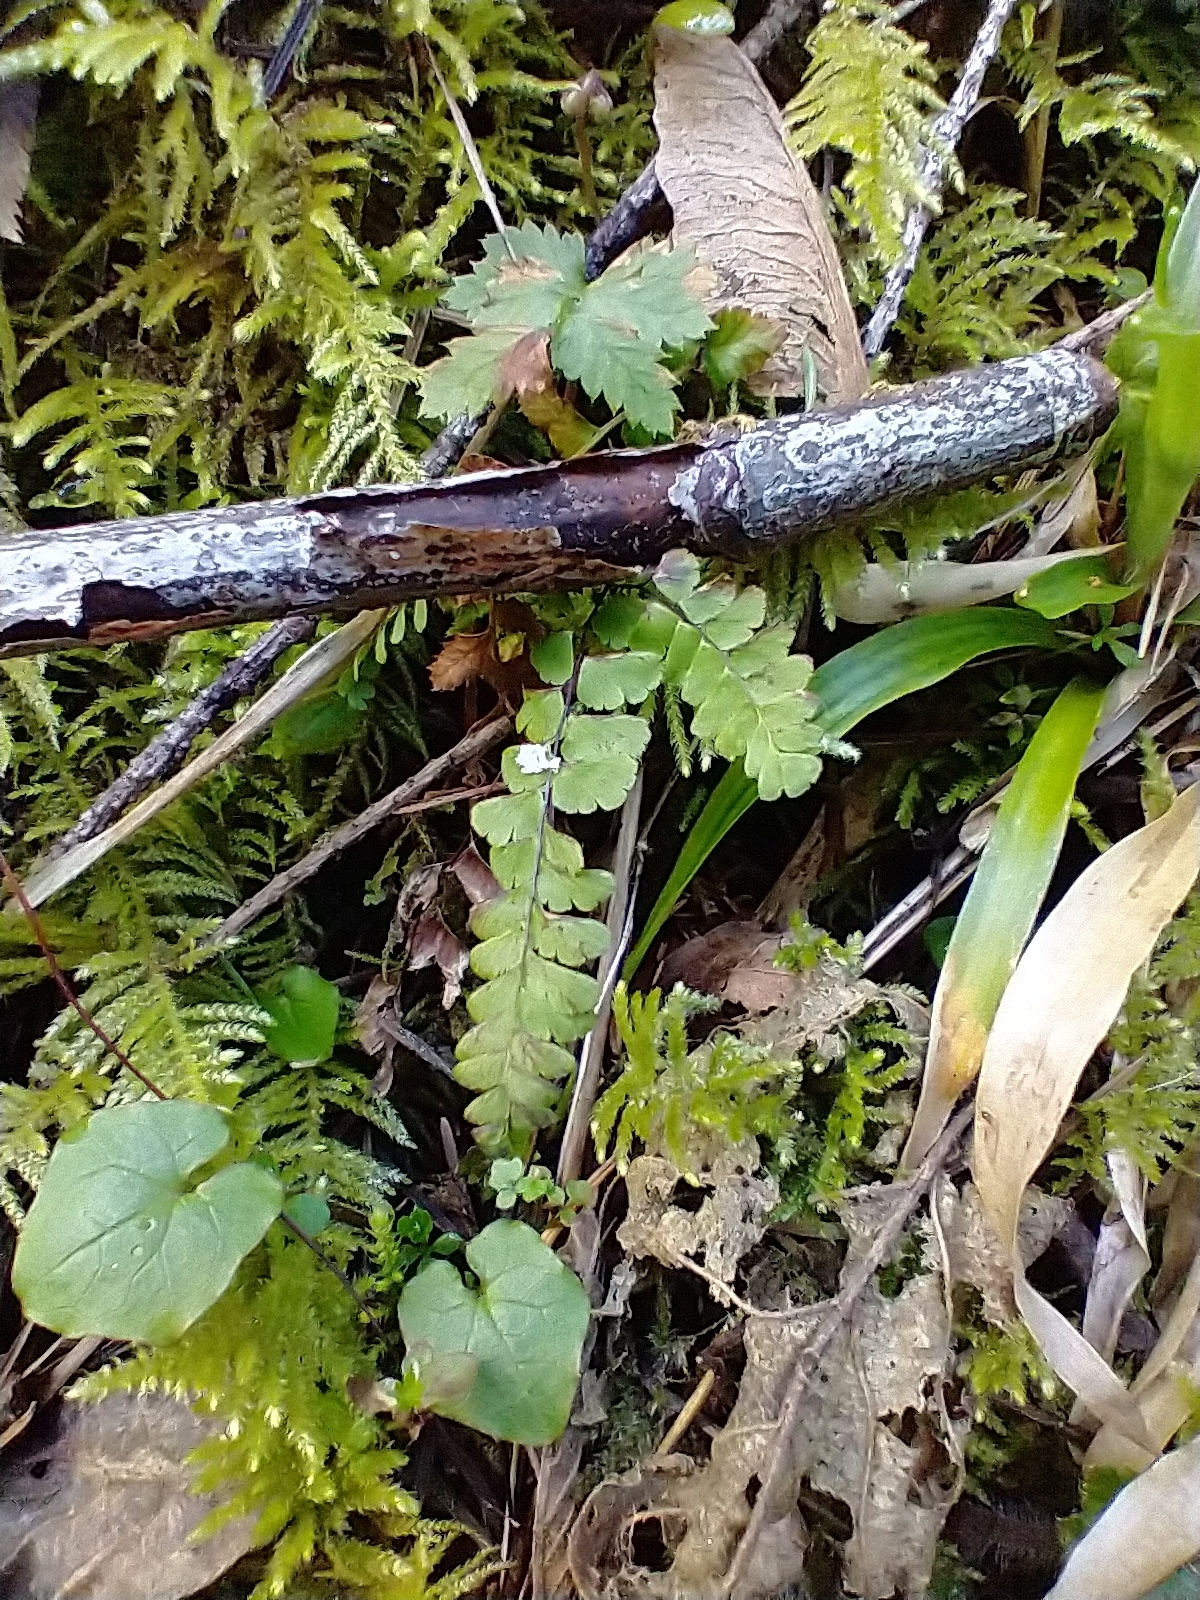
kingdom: Plantae
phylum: Tracheophyta
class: Polypodiopsida
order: Polypodiales
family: Pteridaceae
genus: Adiantum
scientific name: Adiantum aleuticum
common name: Aleutian maidenhair fern
